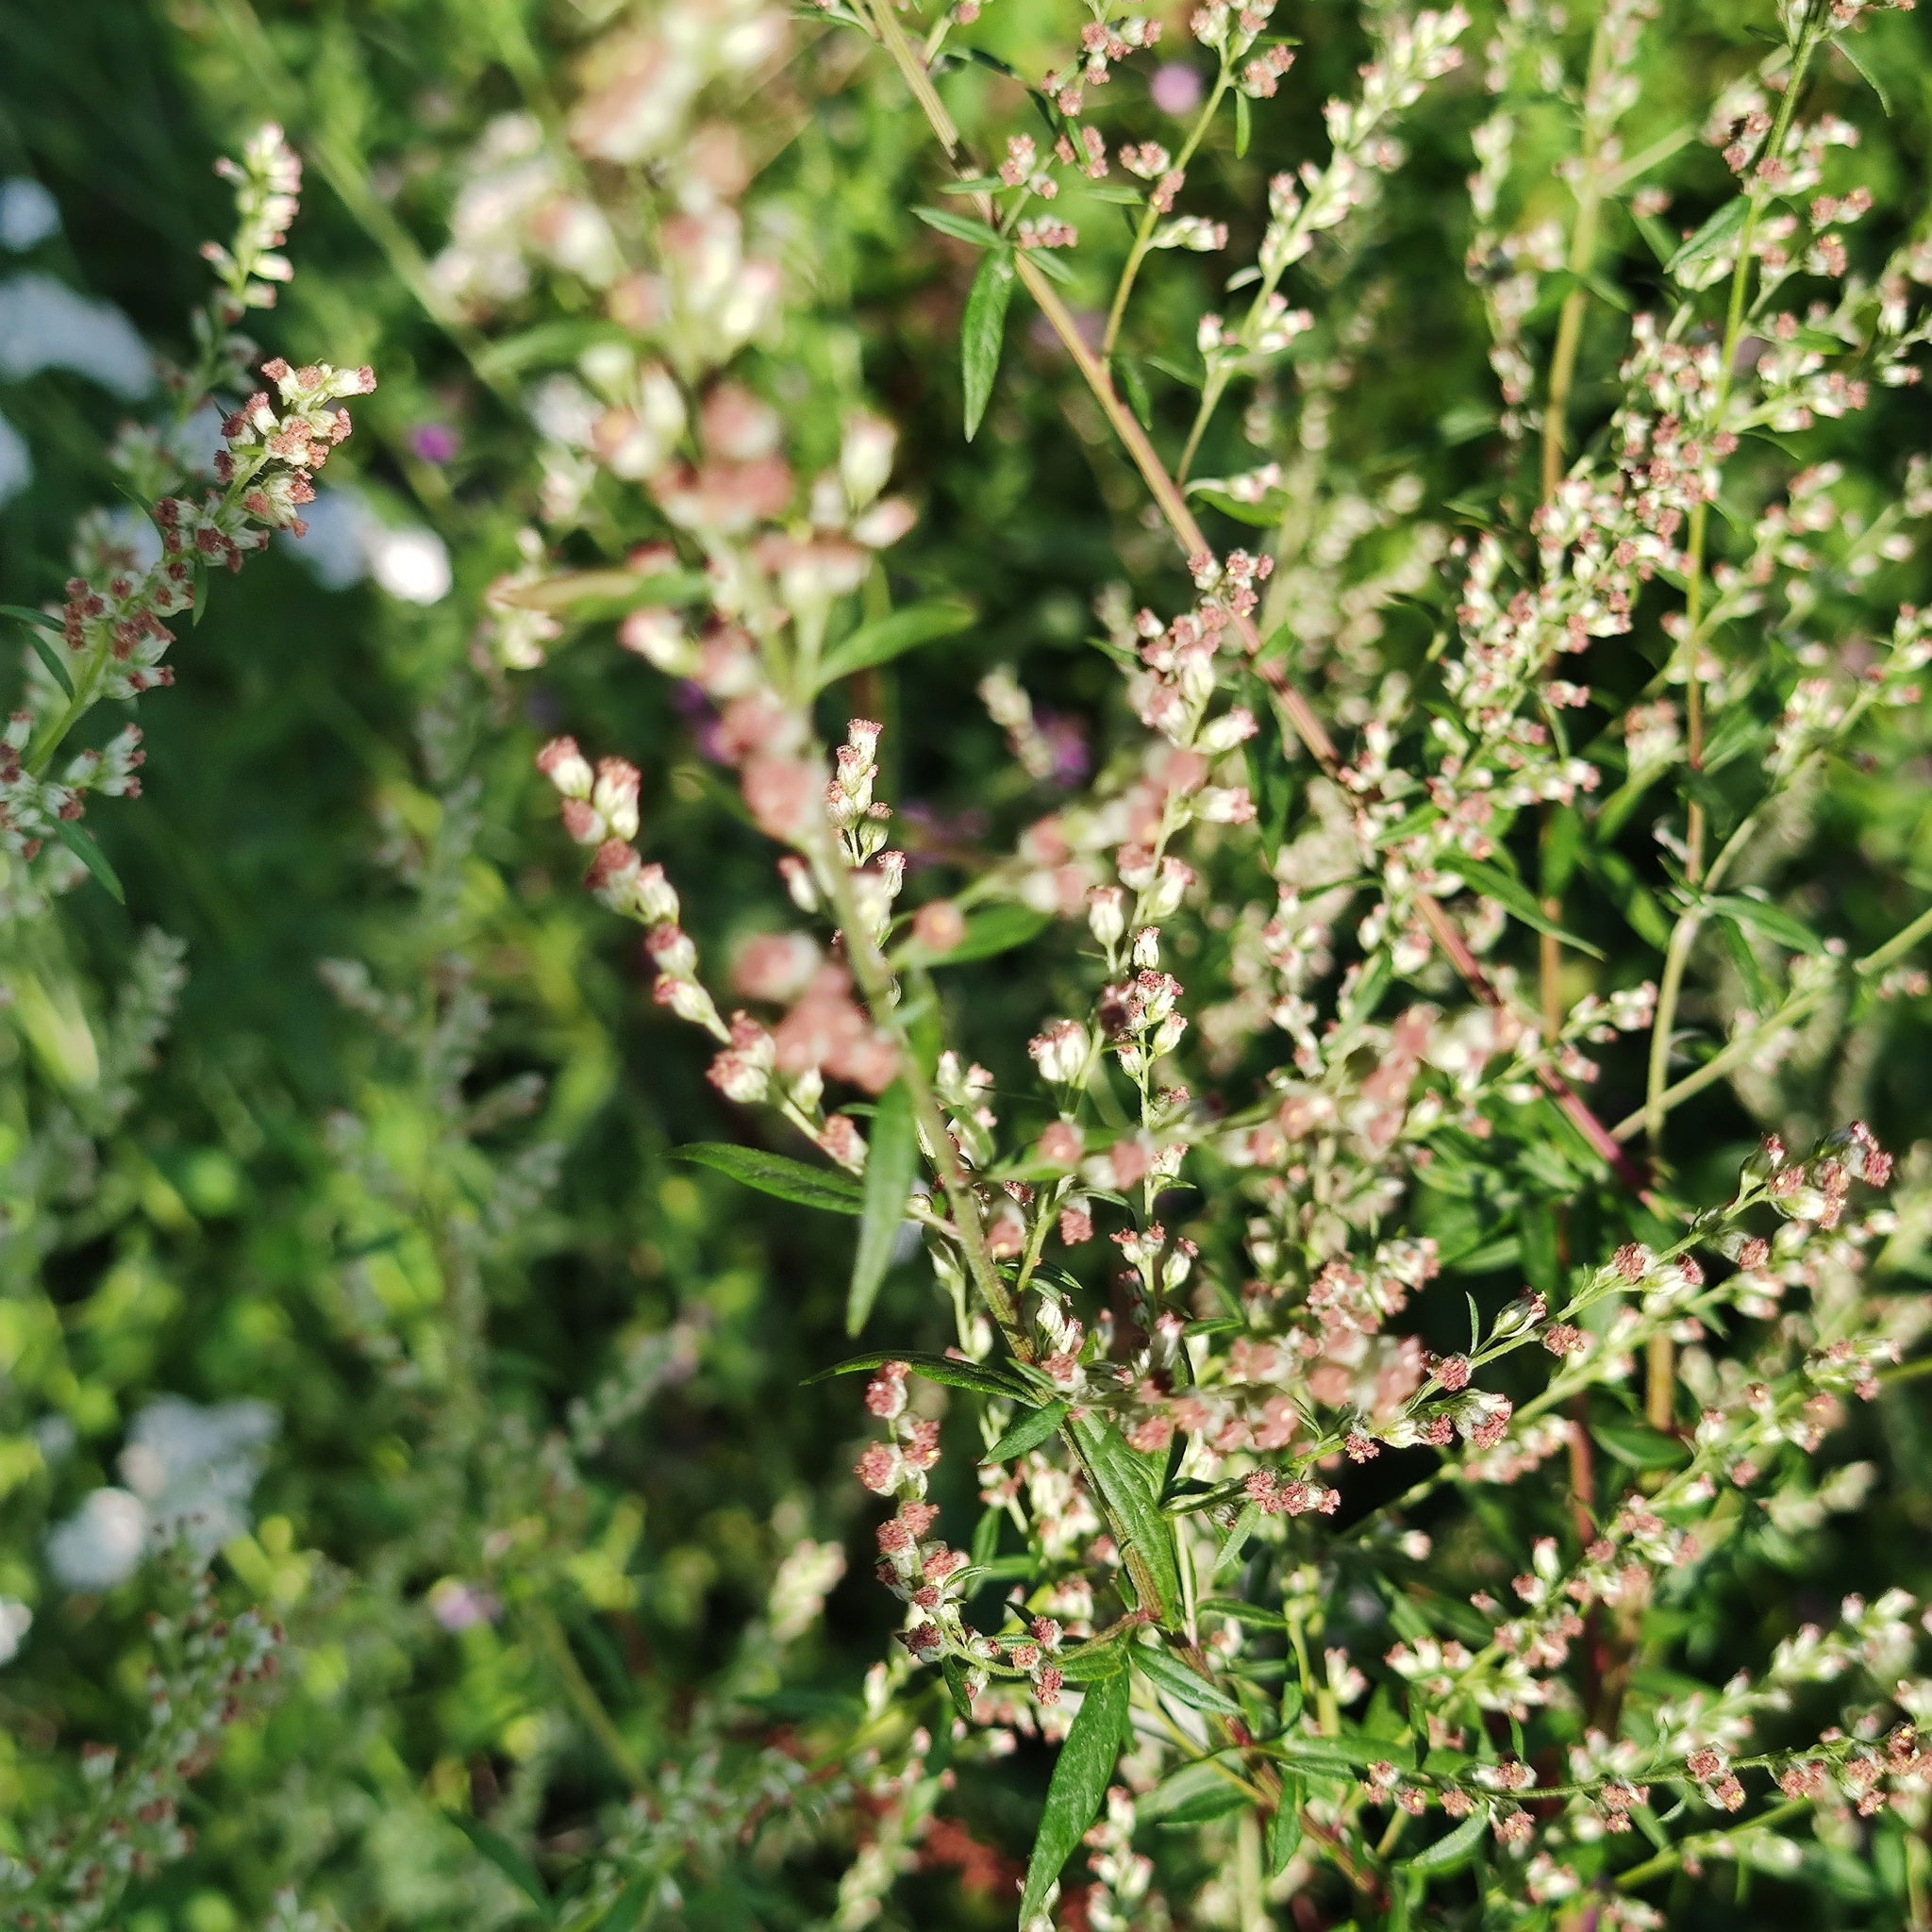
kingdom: Plantae
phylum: Tracheophyta
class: Magnoliopsida
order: Asterales
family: Asteraceae
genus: Artemisia
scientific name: Artemisia vulgaris
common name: Mugwort
